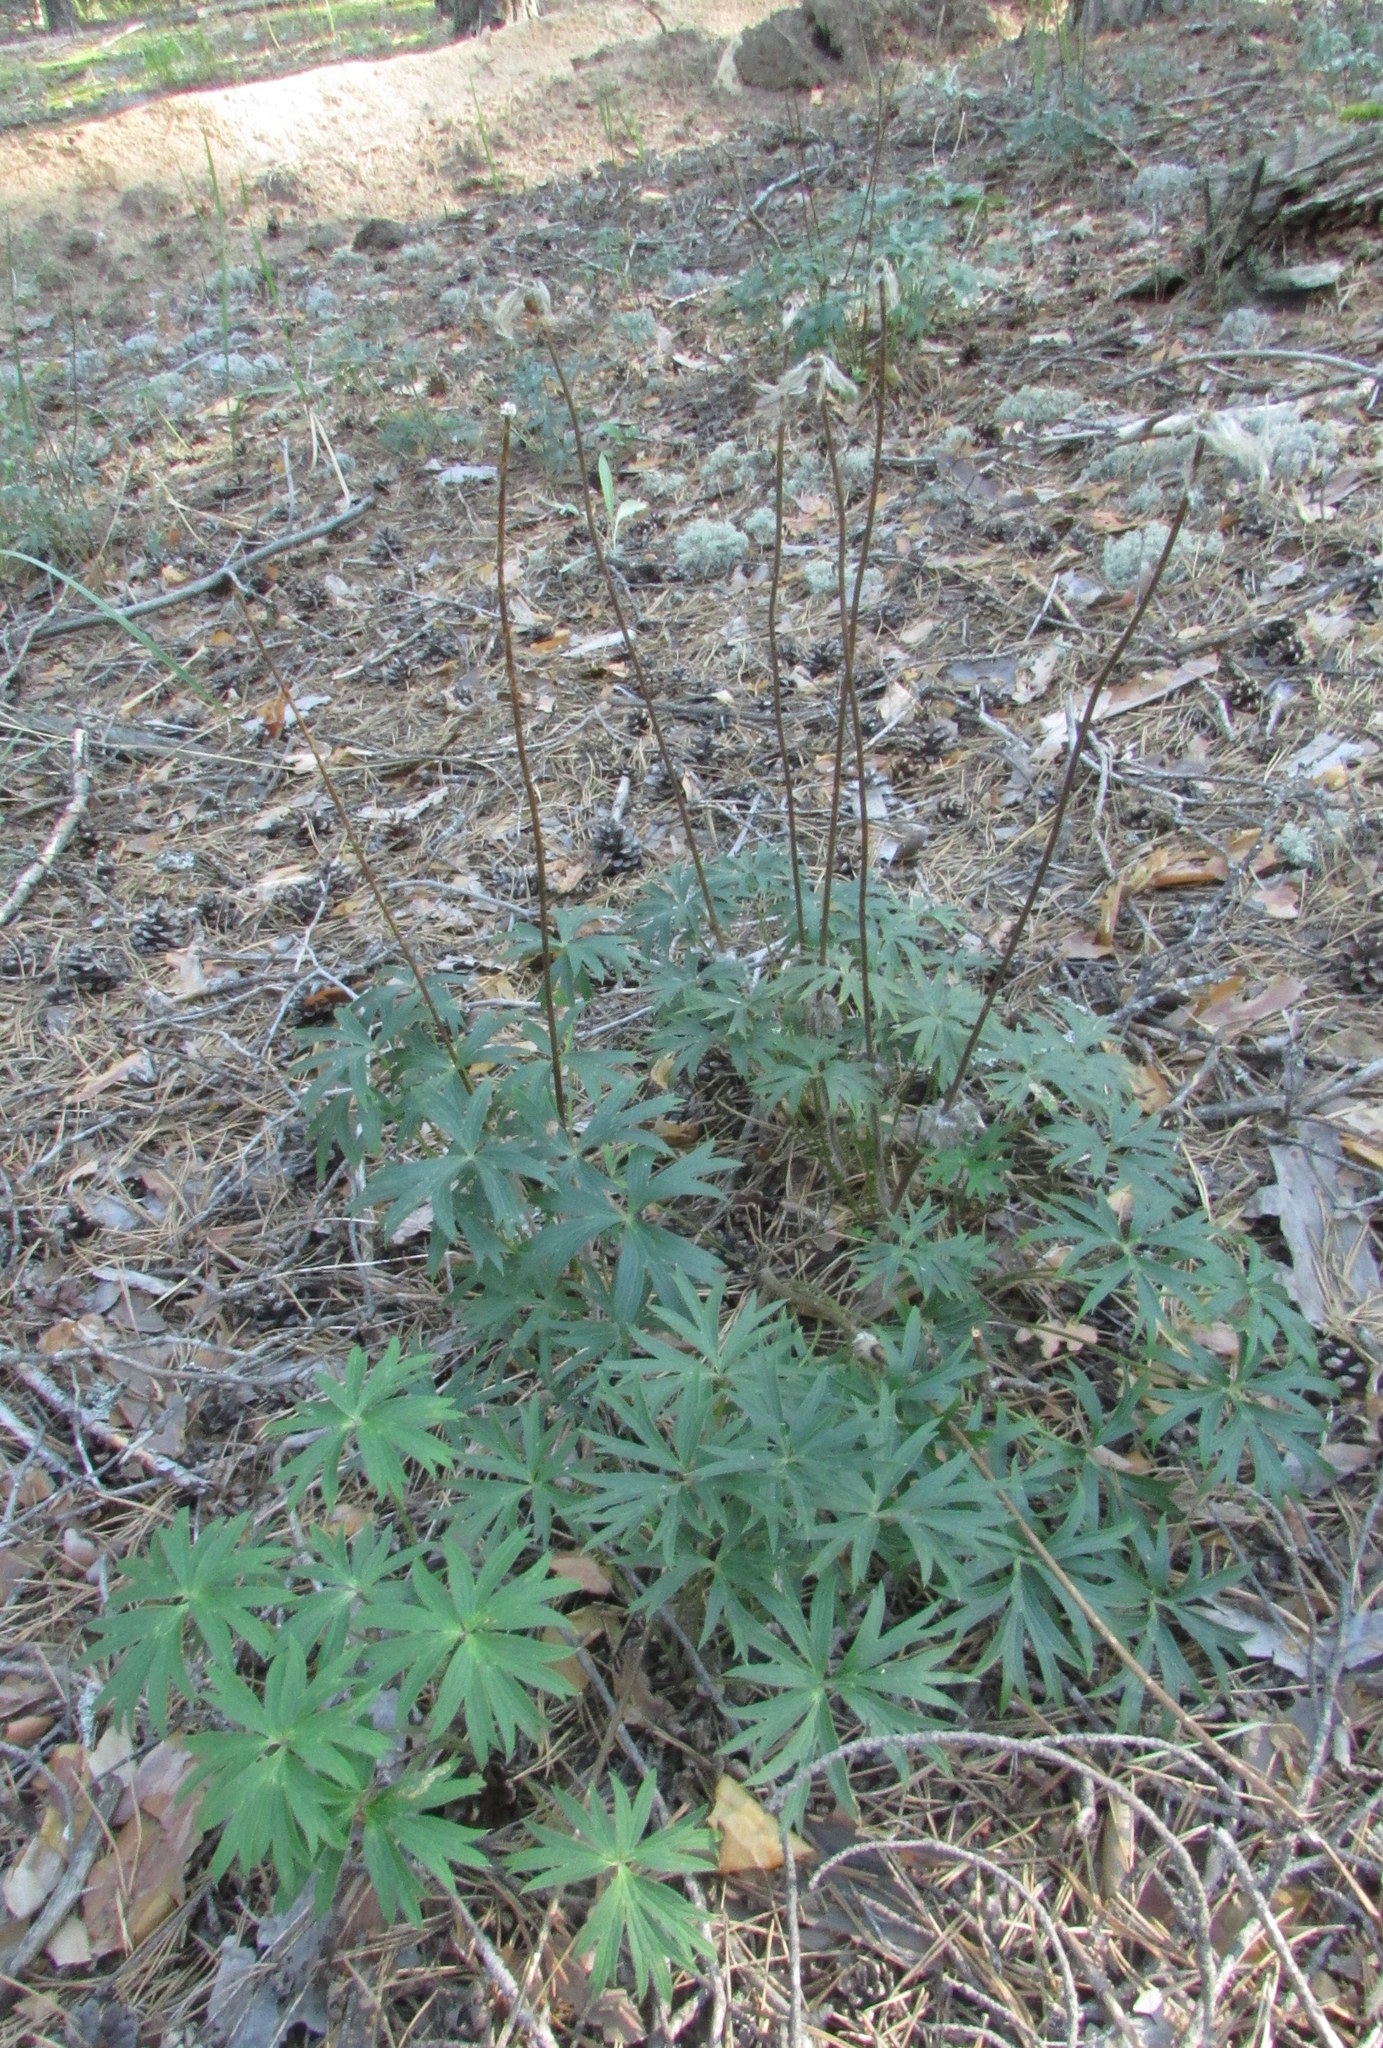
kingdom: Plantae
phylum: Tracheophyta
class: Magnoliopsida
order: Ranunculales
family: Ranunculaceae
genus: Pulsatilla
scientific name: Pulsatilla patens
